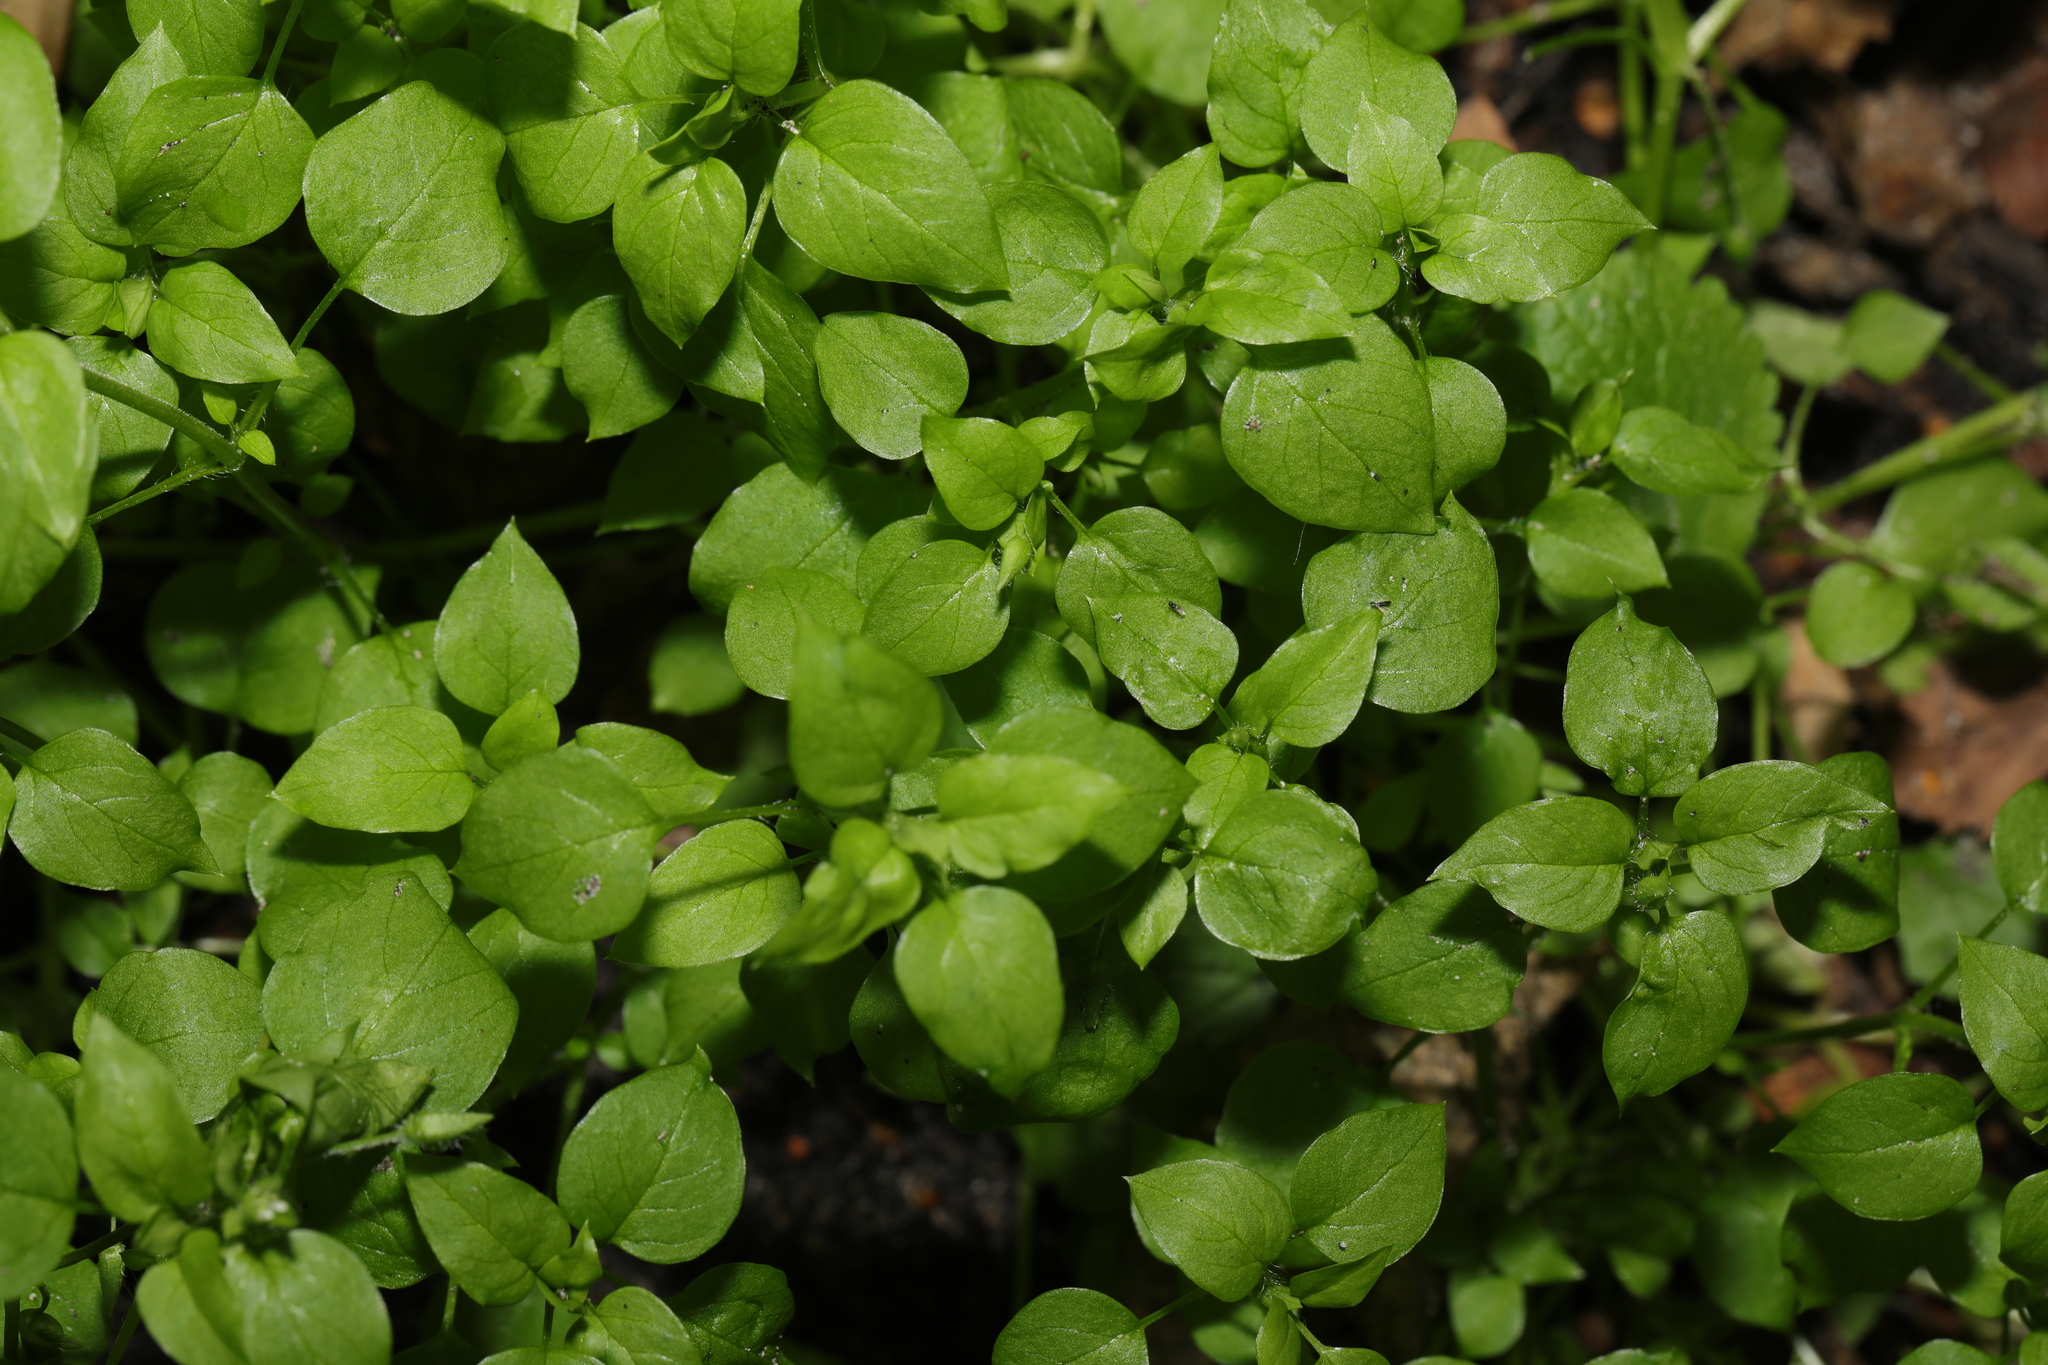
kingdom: Plantae
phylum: Tracheophyta
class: Magnoliopsida
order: Caryophyllales
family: Caryophyllaceae
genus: Stellaria
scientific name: Stellaria media
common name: Common chickweed
